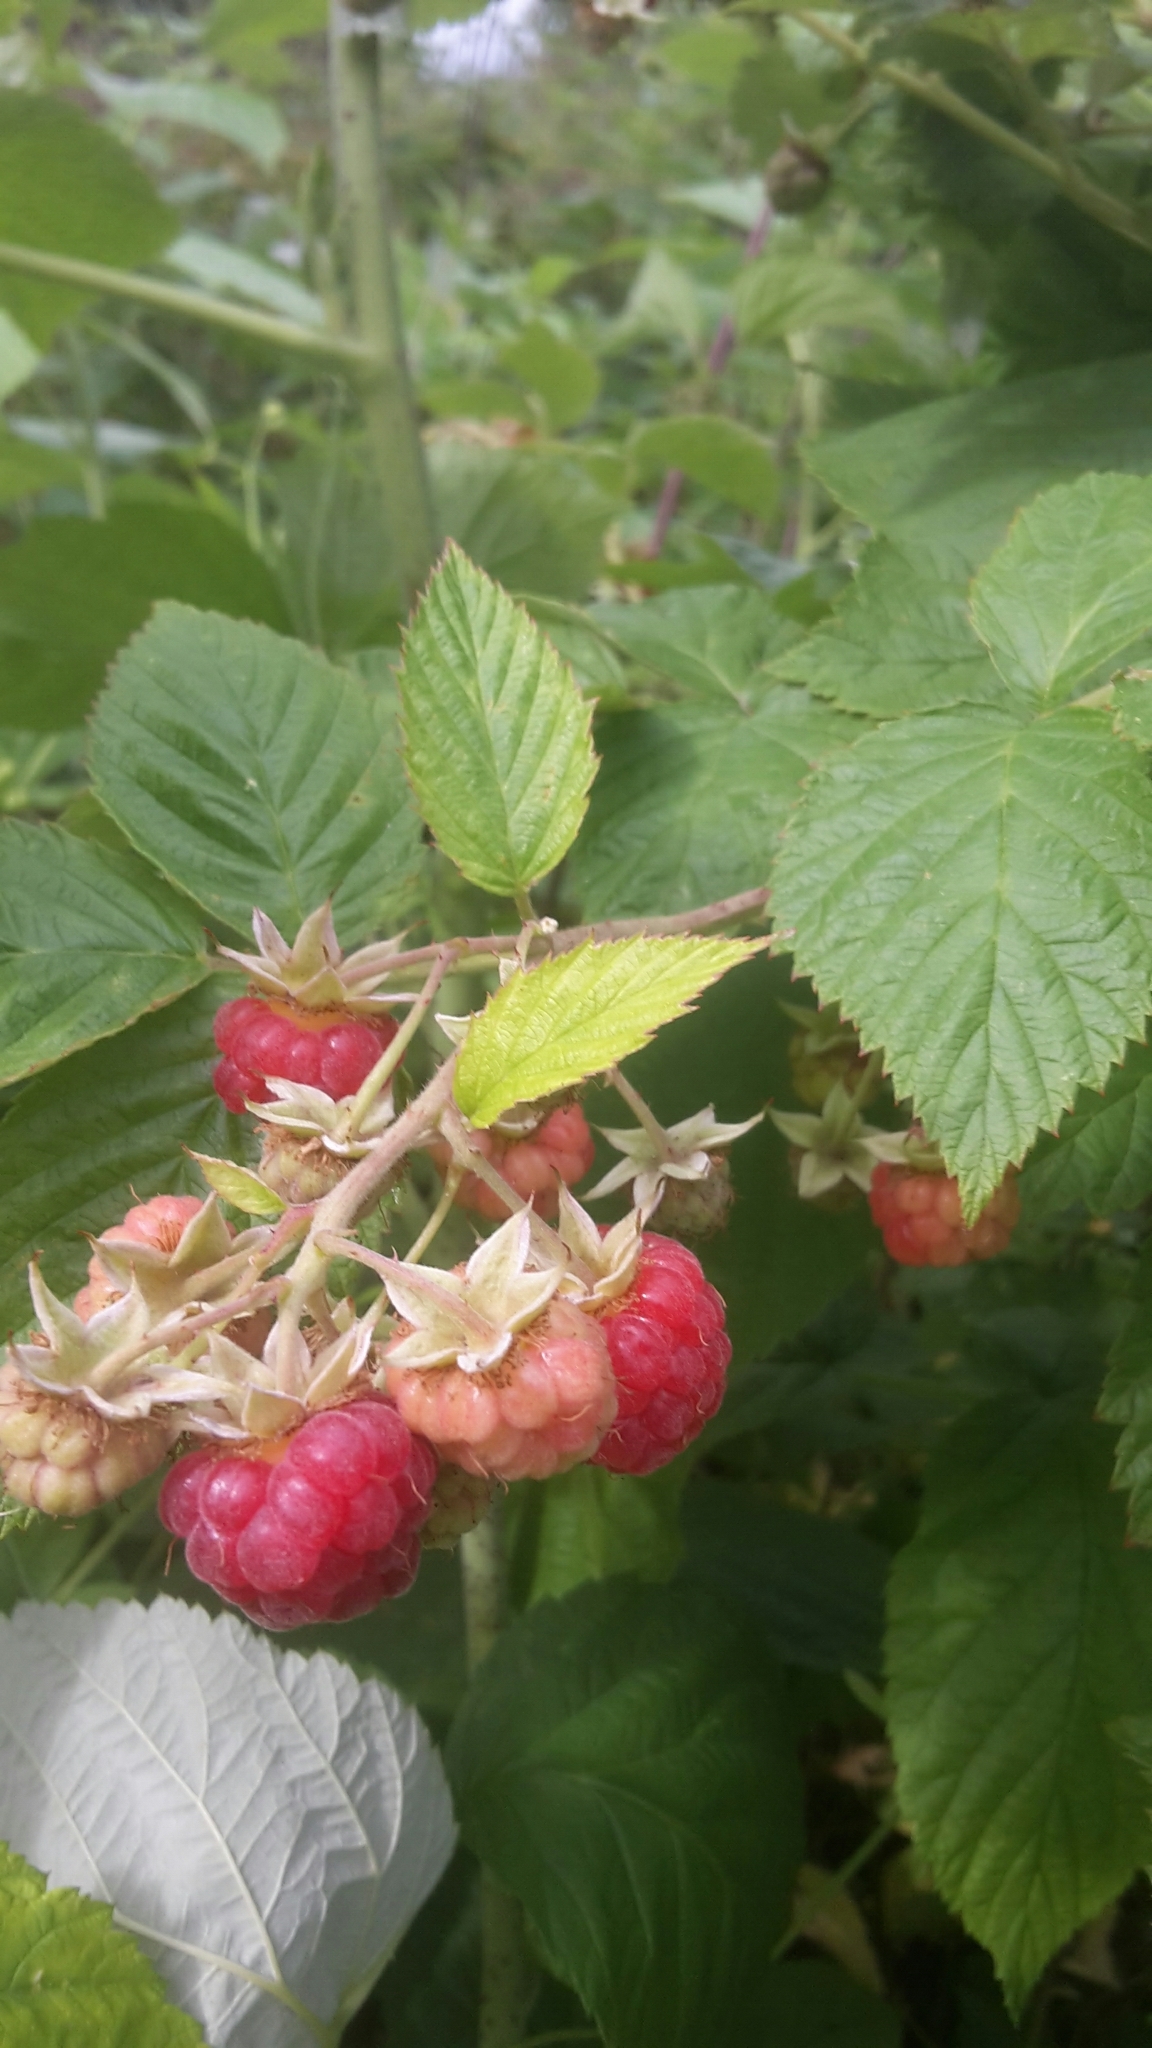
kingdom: Plantae
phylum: Tracheophyta
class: Magnoliopsida
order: Rosales
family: Rosaceae
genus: Rubus
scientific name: Rubus idaeus
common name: Raspberry
